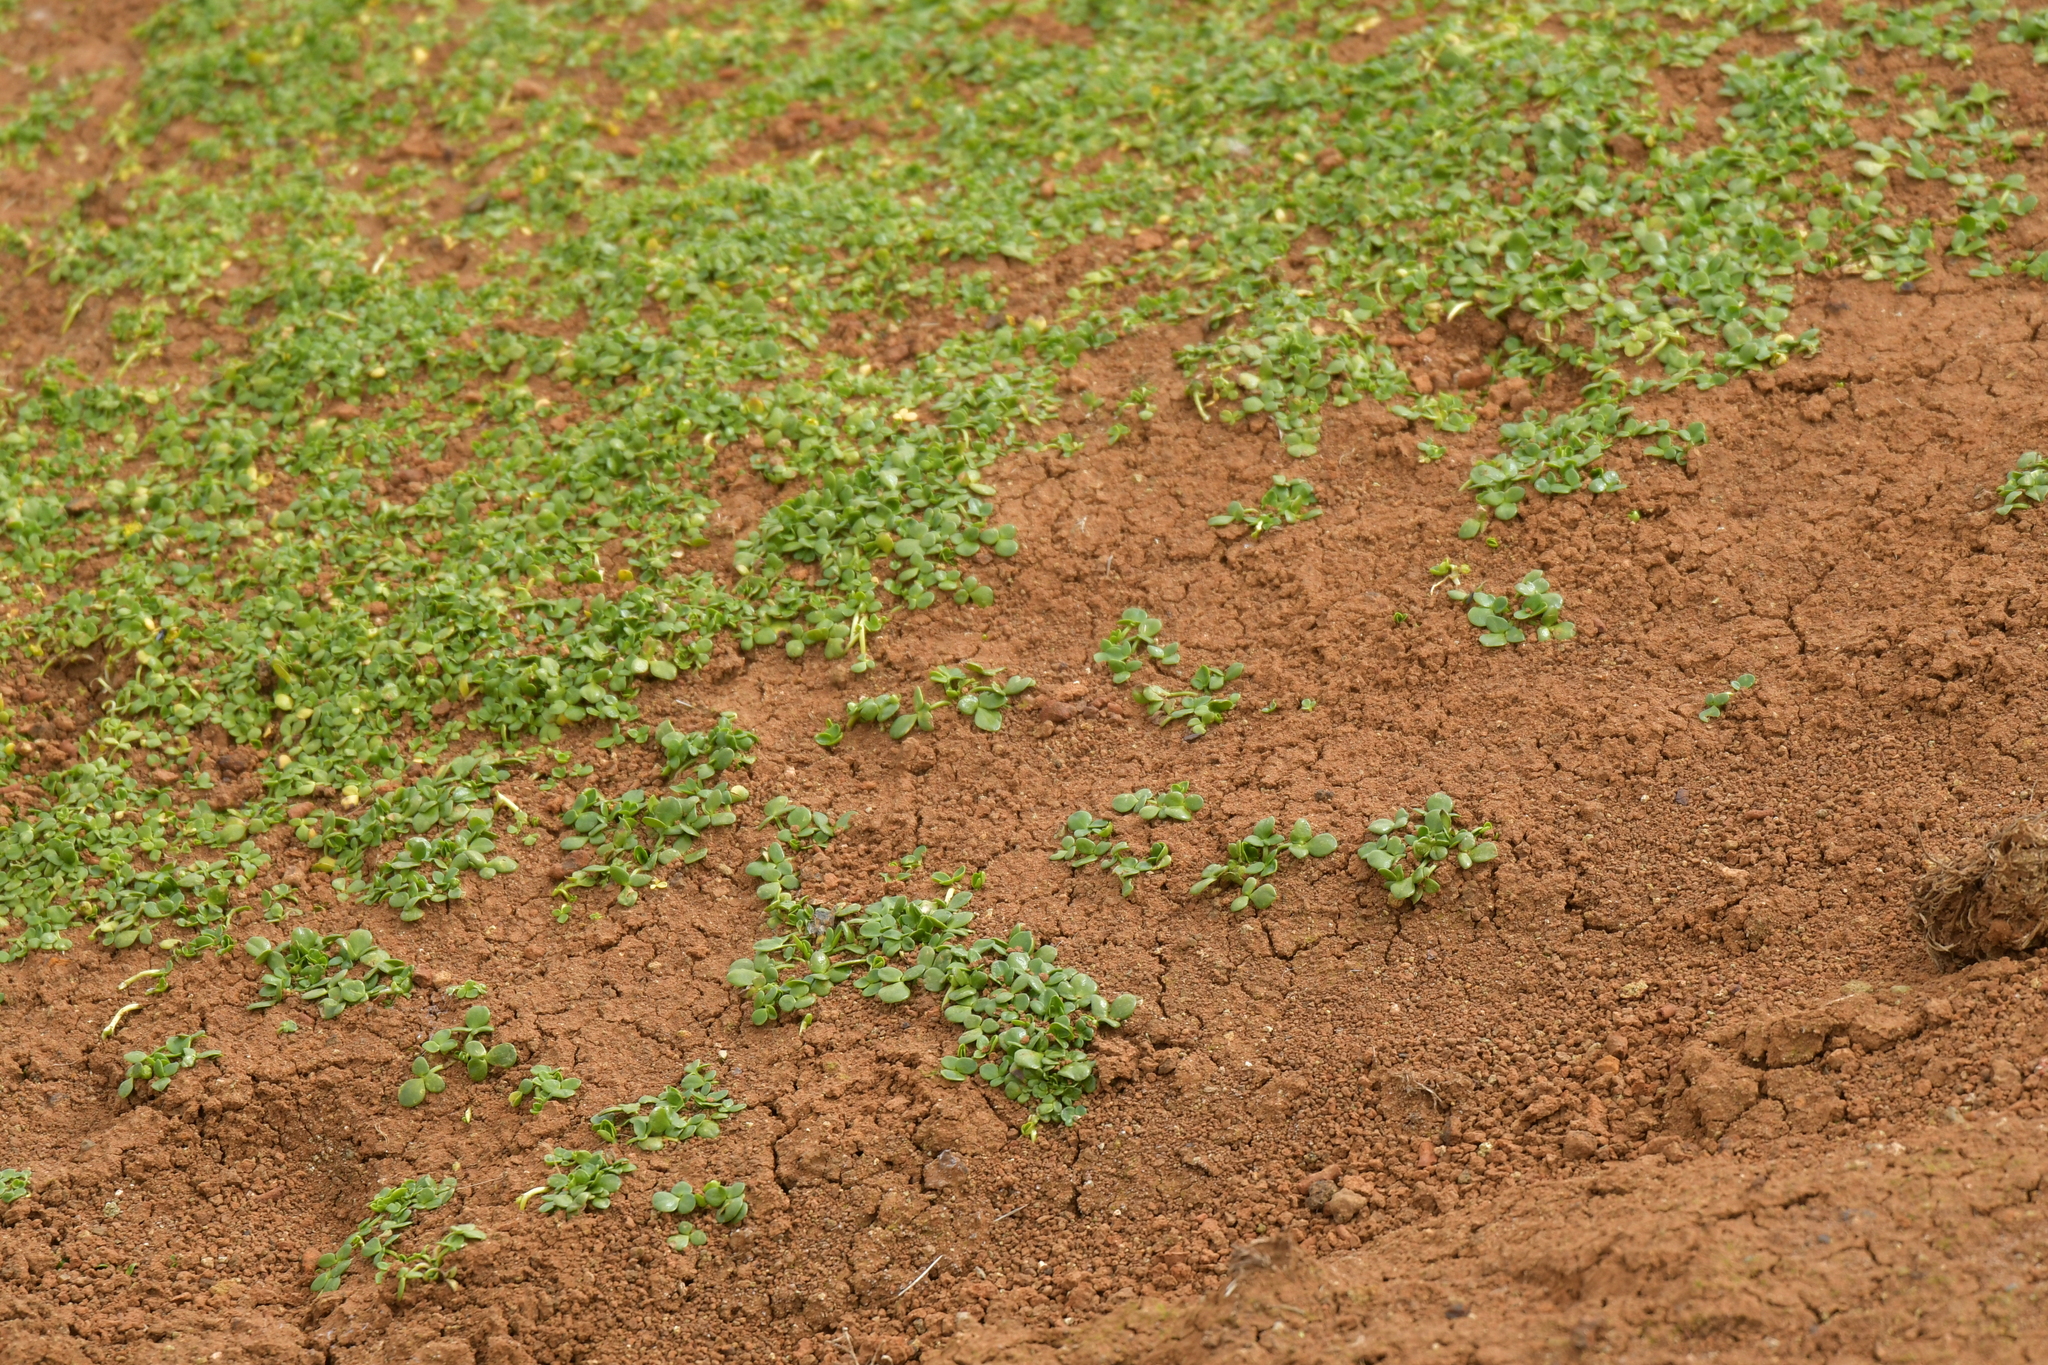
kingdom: Plantae
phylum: Tracheophyta
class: Magnoliopsida
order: Ranunculales
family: Ranunculaceae
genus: Ranunculus
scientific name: Ranunculus acaulis
